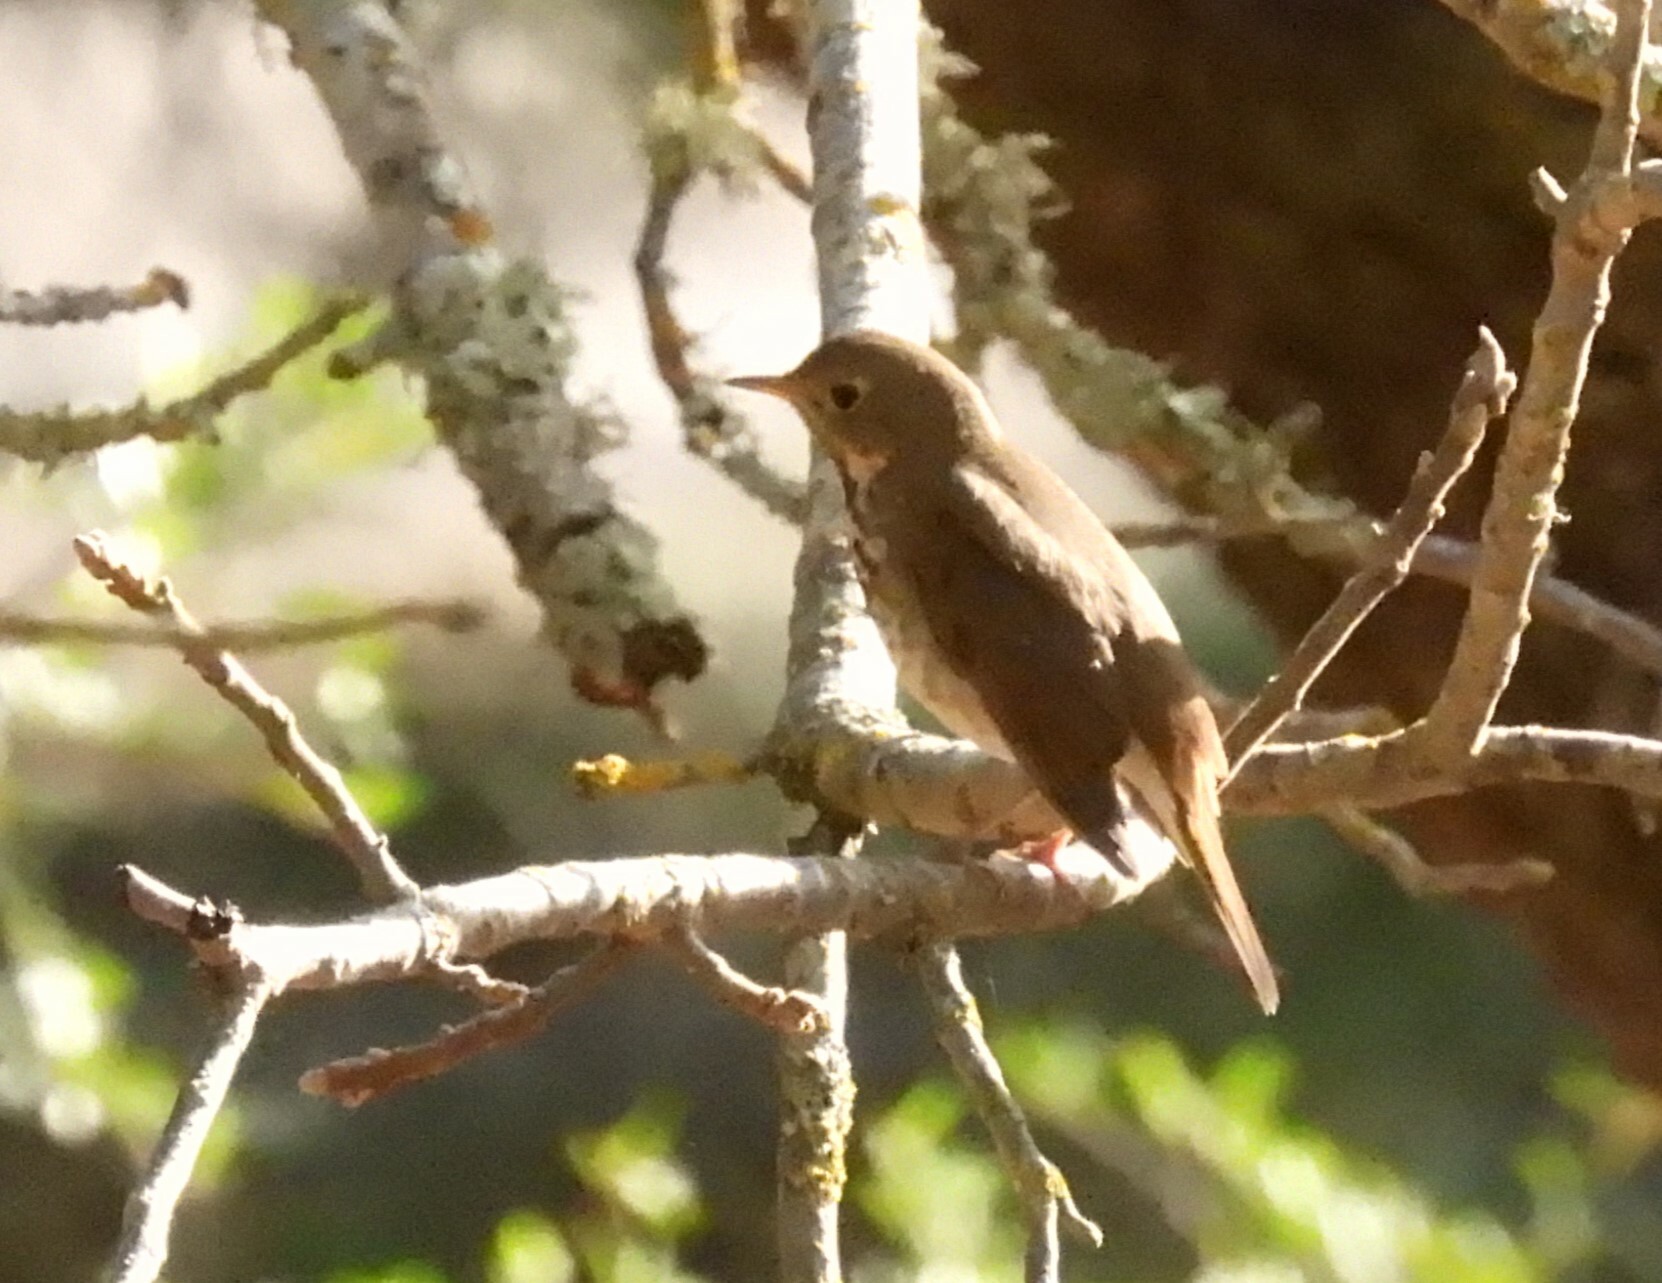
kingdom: Animalia
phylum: Chordata
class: Aves
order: Passeriformes
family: Turdidae
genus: Catharus
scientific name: Catharus guttatus
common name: Hermit thrush
